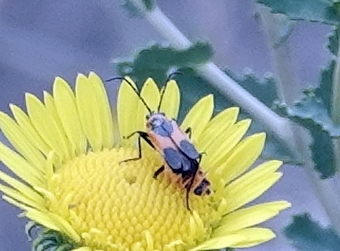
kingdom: Animalia
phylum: Arthropoda
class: Insecta
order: Coleoptera
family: Cantharidae
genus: Chauliognathus
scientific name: Chauliognathus basalis
